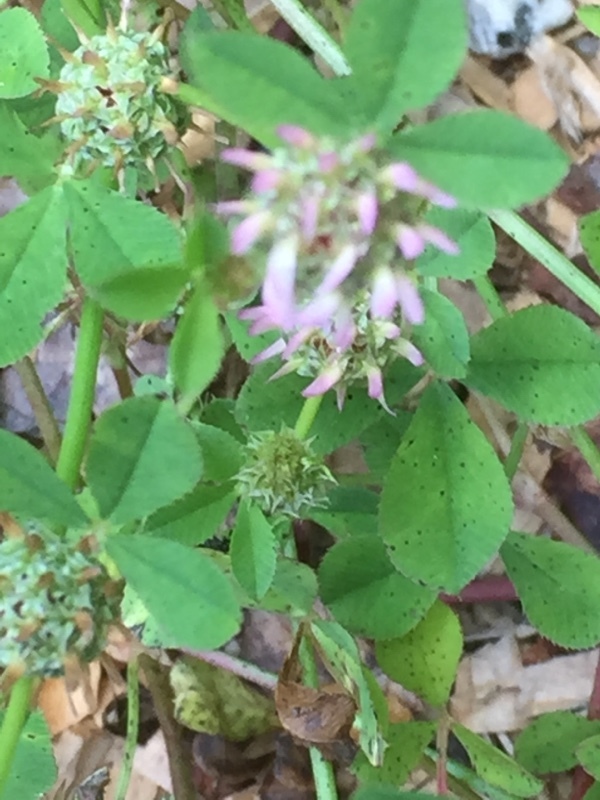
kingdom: Plantae
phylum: Tracheophyta
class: Magnoliopsida
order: Fabales
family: Fabaceae
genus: Trifolium
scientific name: Trifolium glomeratum
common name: Clustered clover
